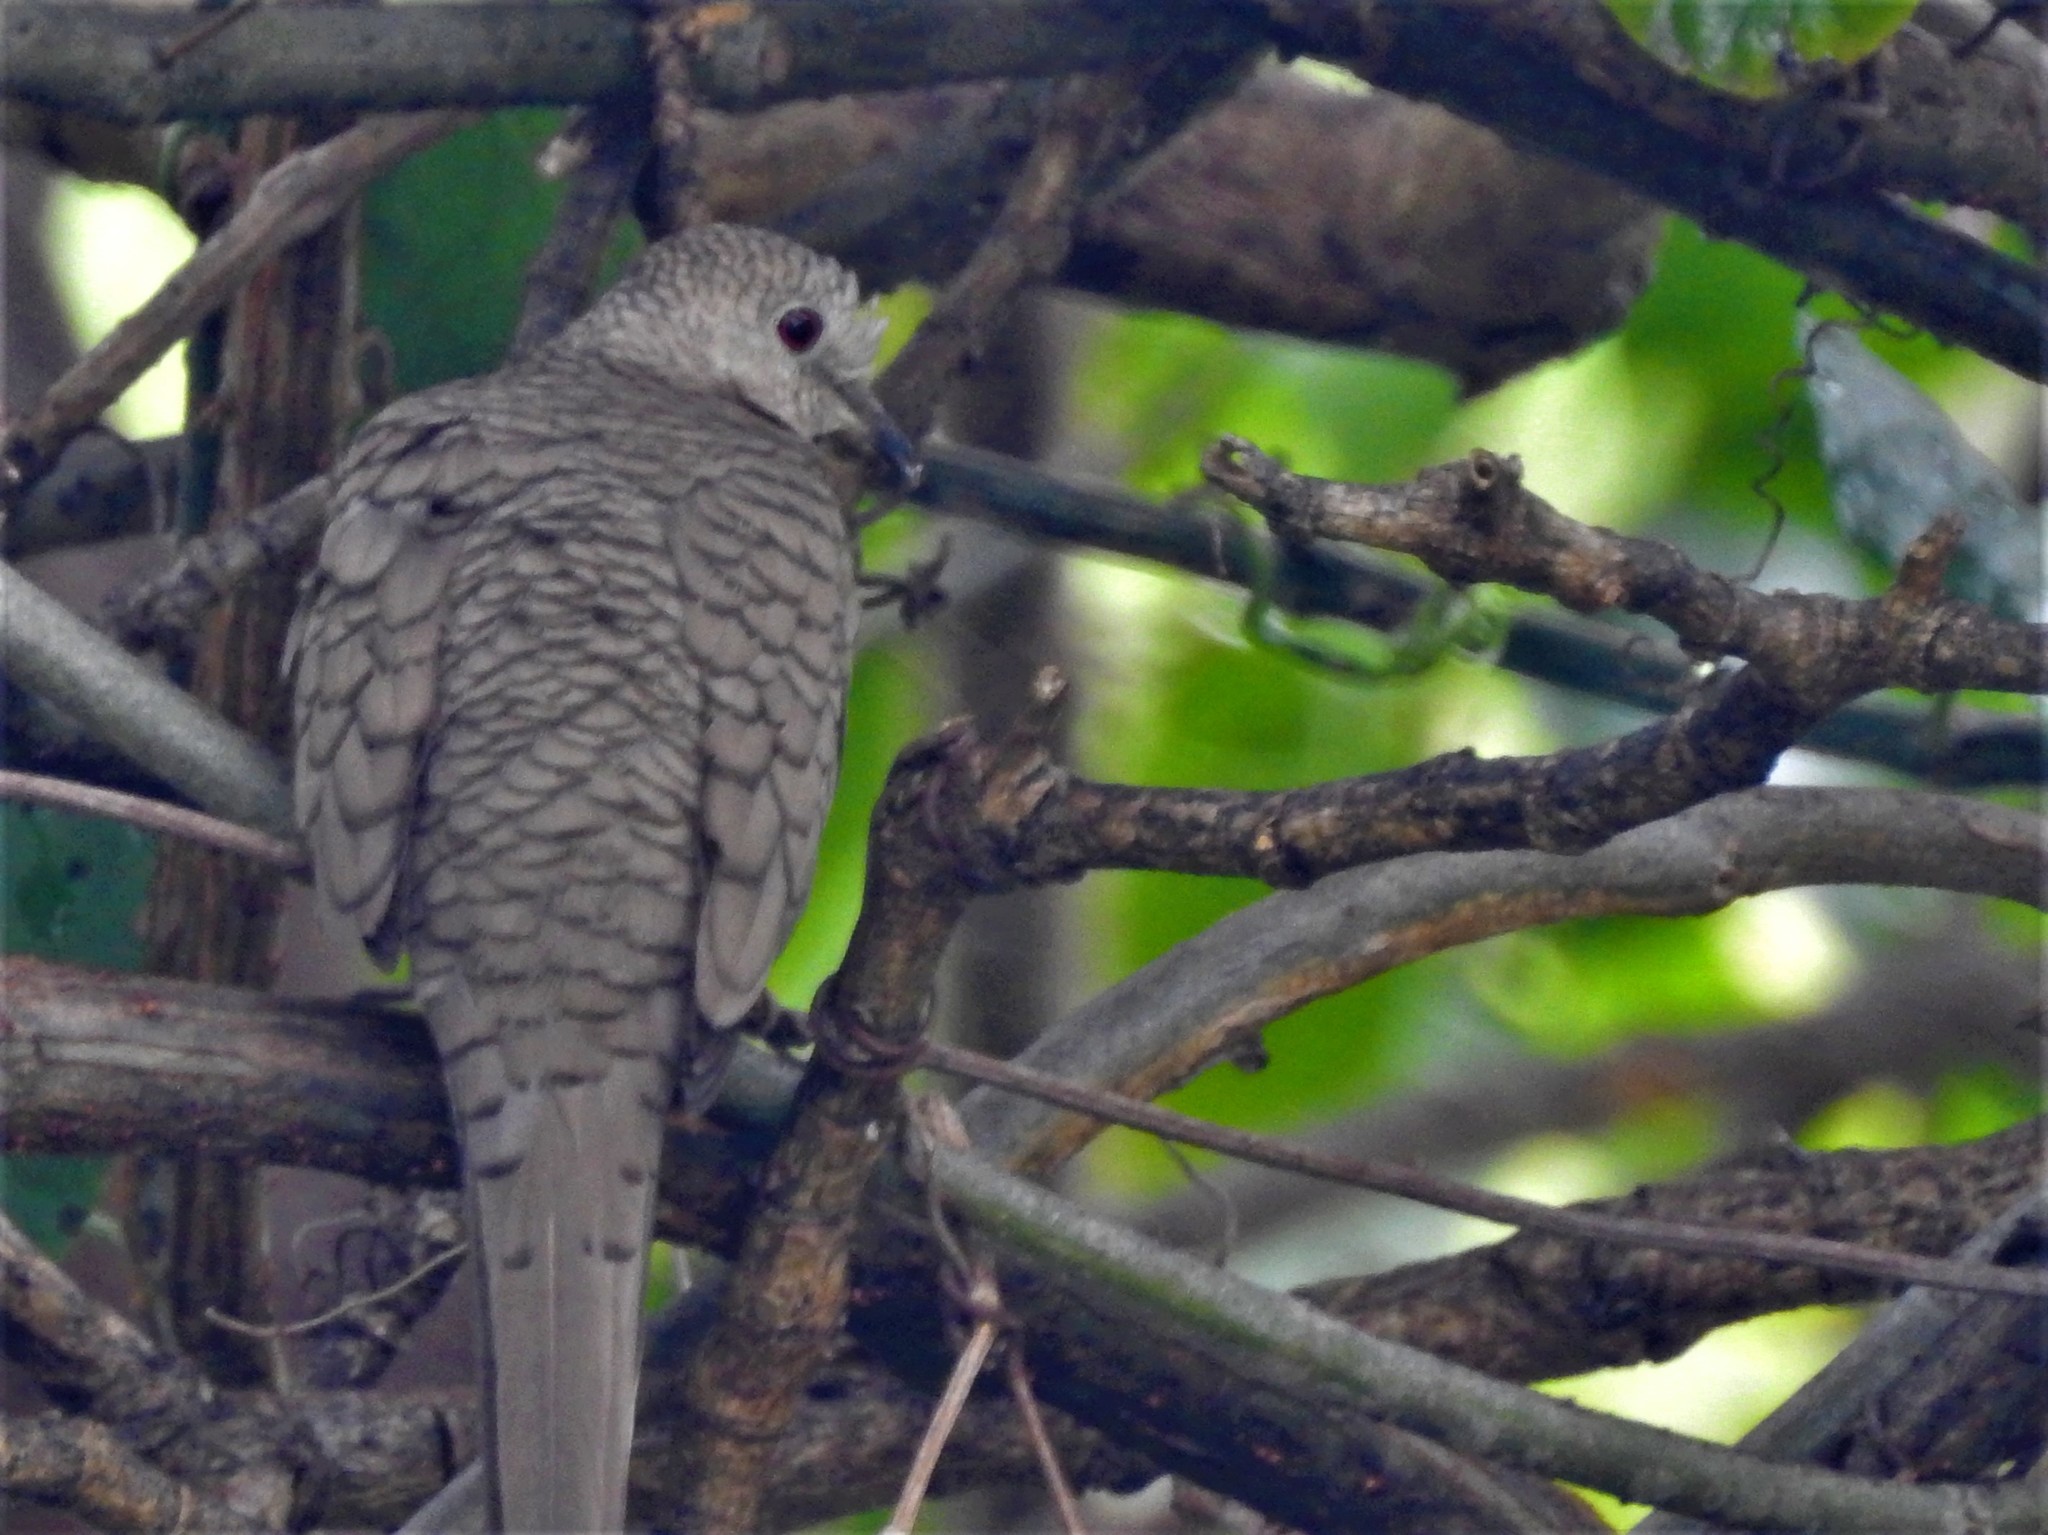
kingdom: Animalia
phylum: Chordata
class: Aves
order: Columbiformes
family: Columbidae
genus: Columbina
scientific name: Columbina inca
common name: Inca dove
